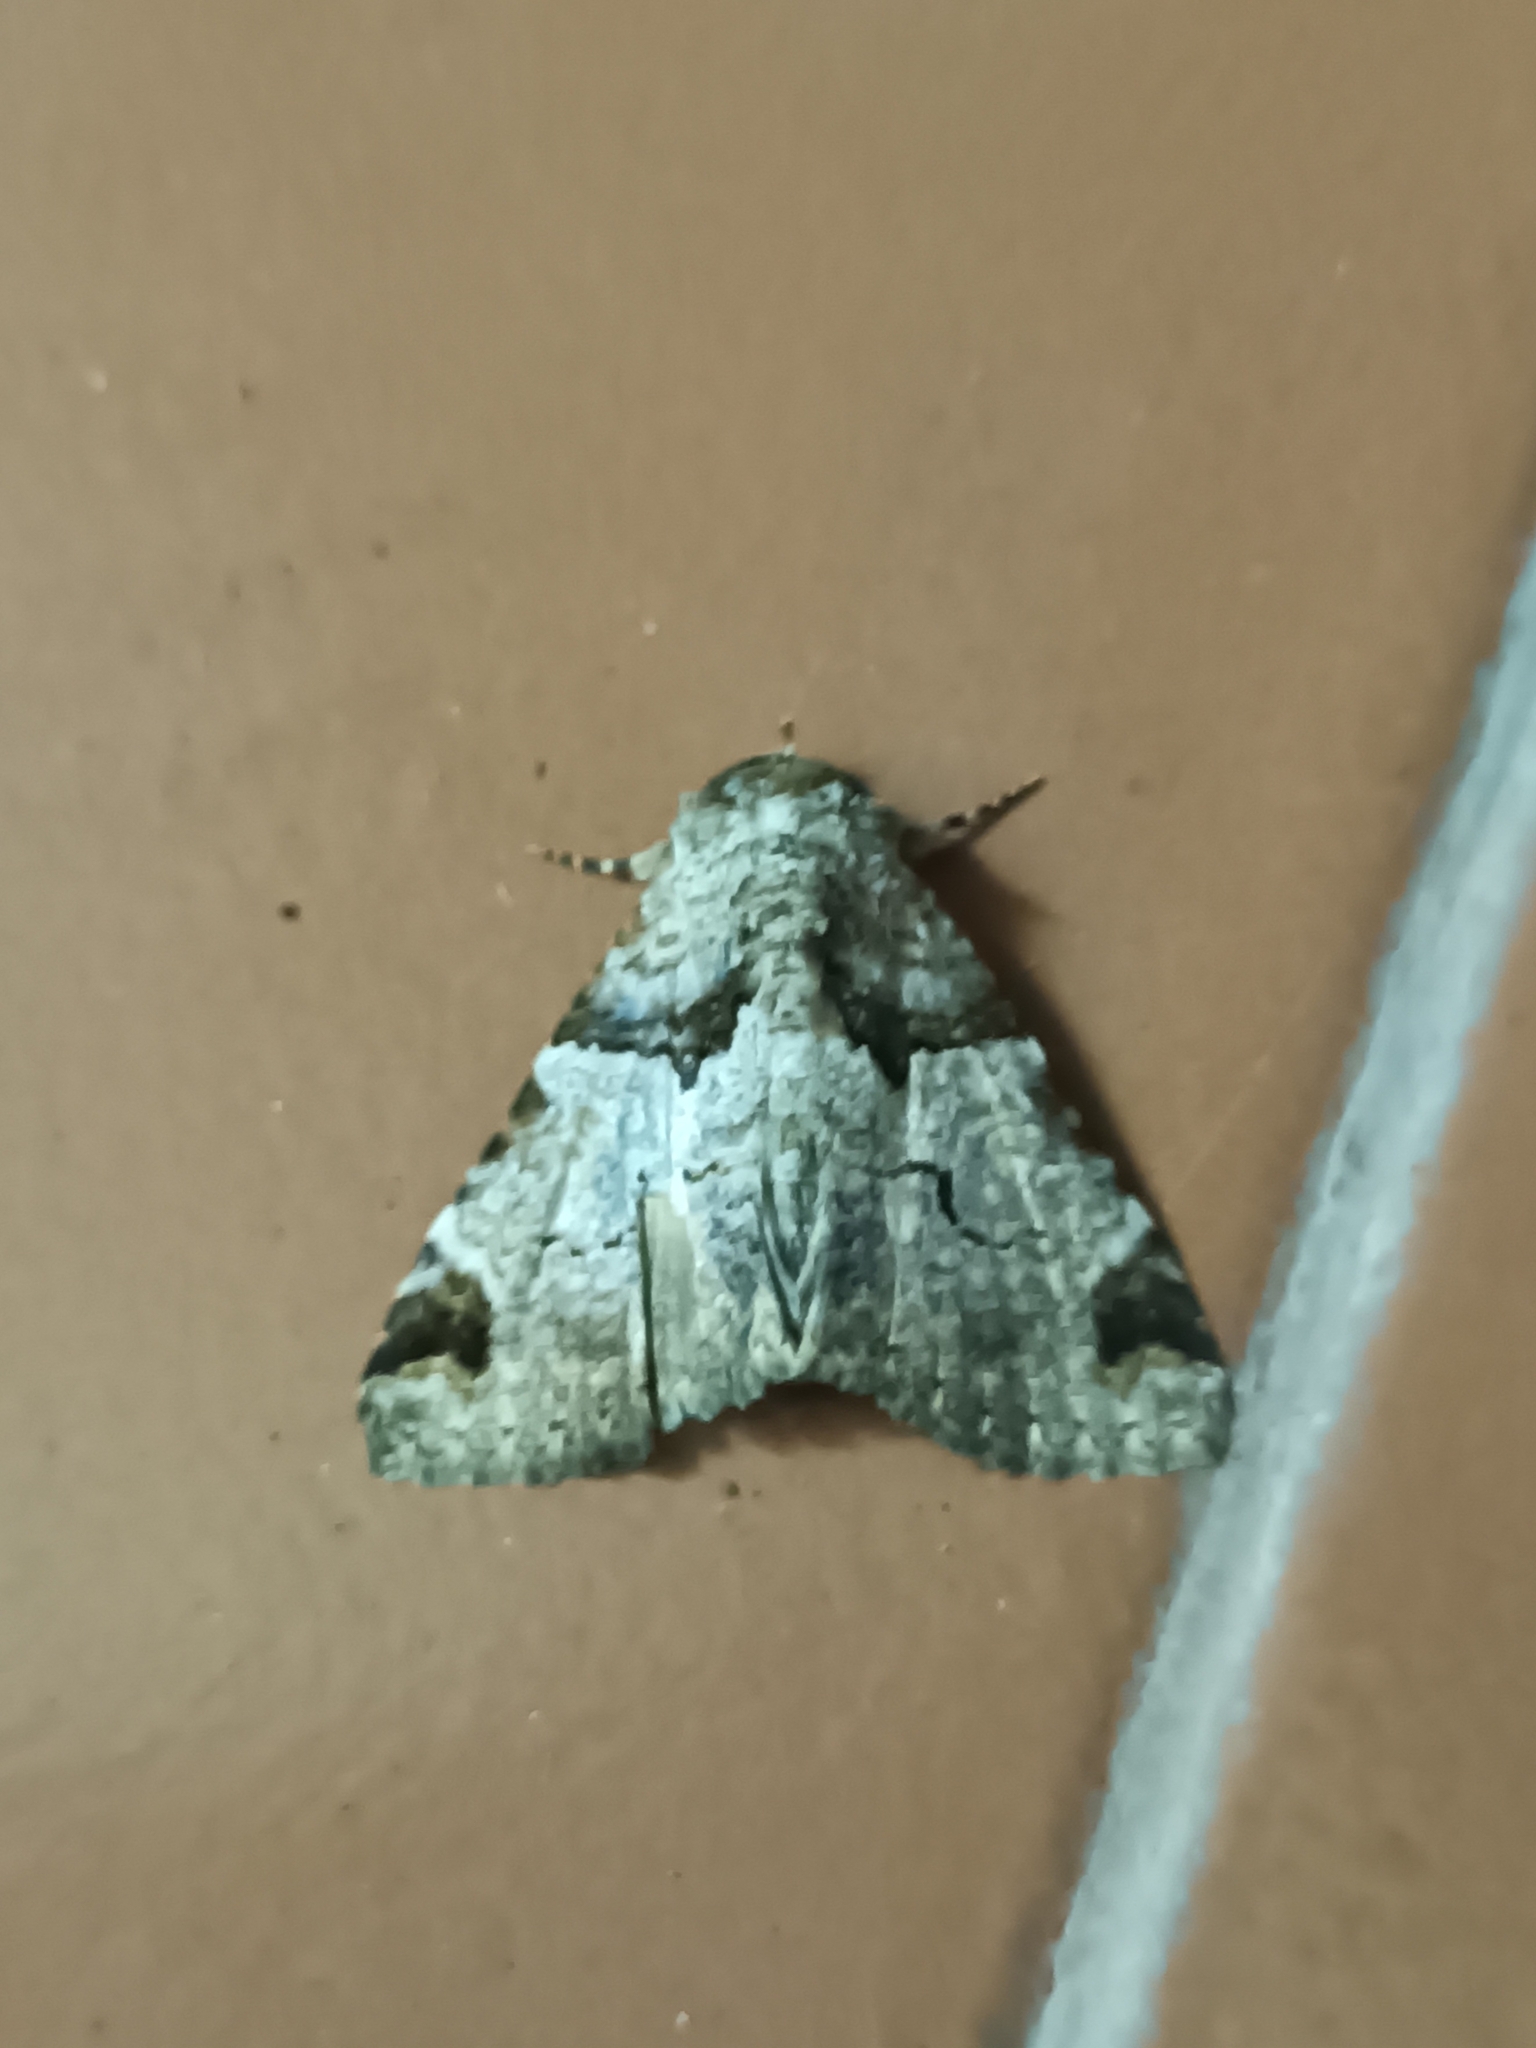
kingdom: Animalia
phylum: Arthropoda
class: Insecta
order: Lepidoptera
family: Erebidae
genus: Erygia
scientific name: Erygia spissa
